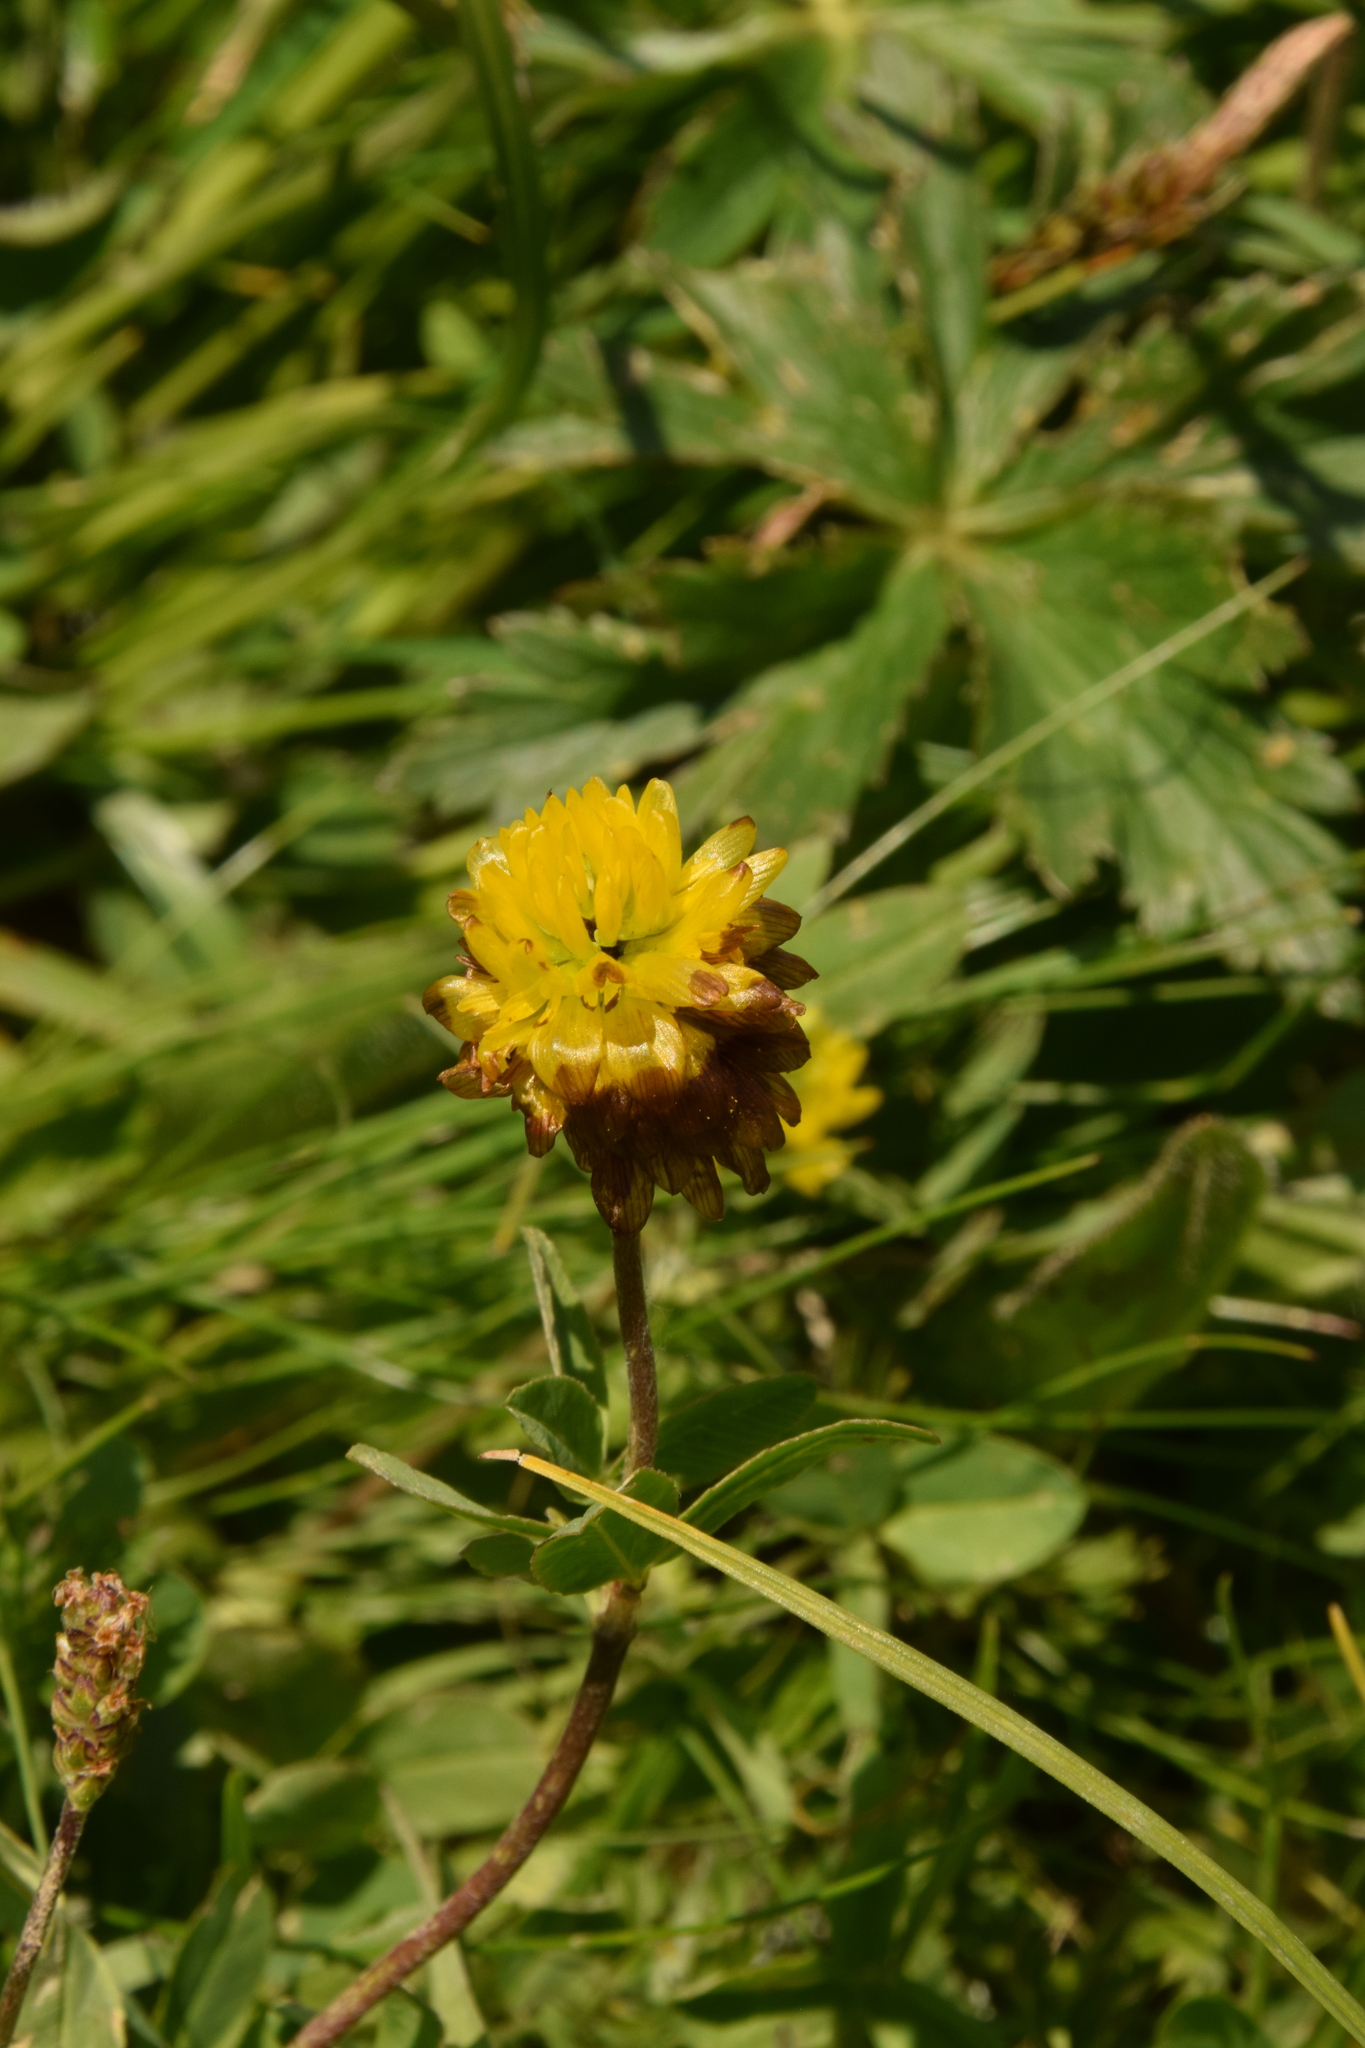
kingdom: Plantae
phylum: Tracheophyta
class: Magnoliopsida
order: Fabales
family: Fabaceae
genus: Trifolium
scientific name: Trifolium badium
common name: Brown clover
